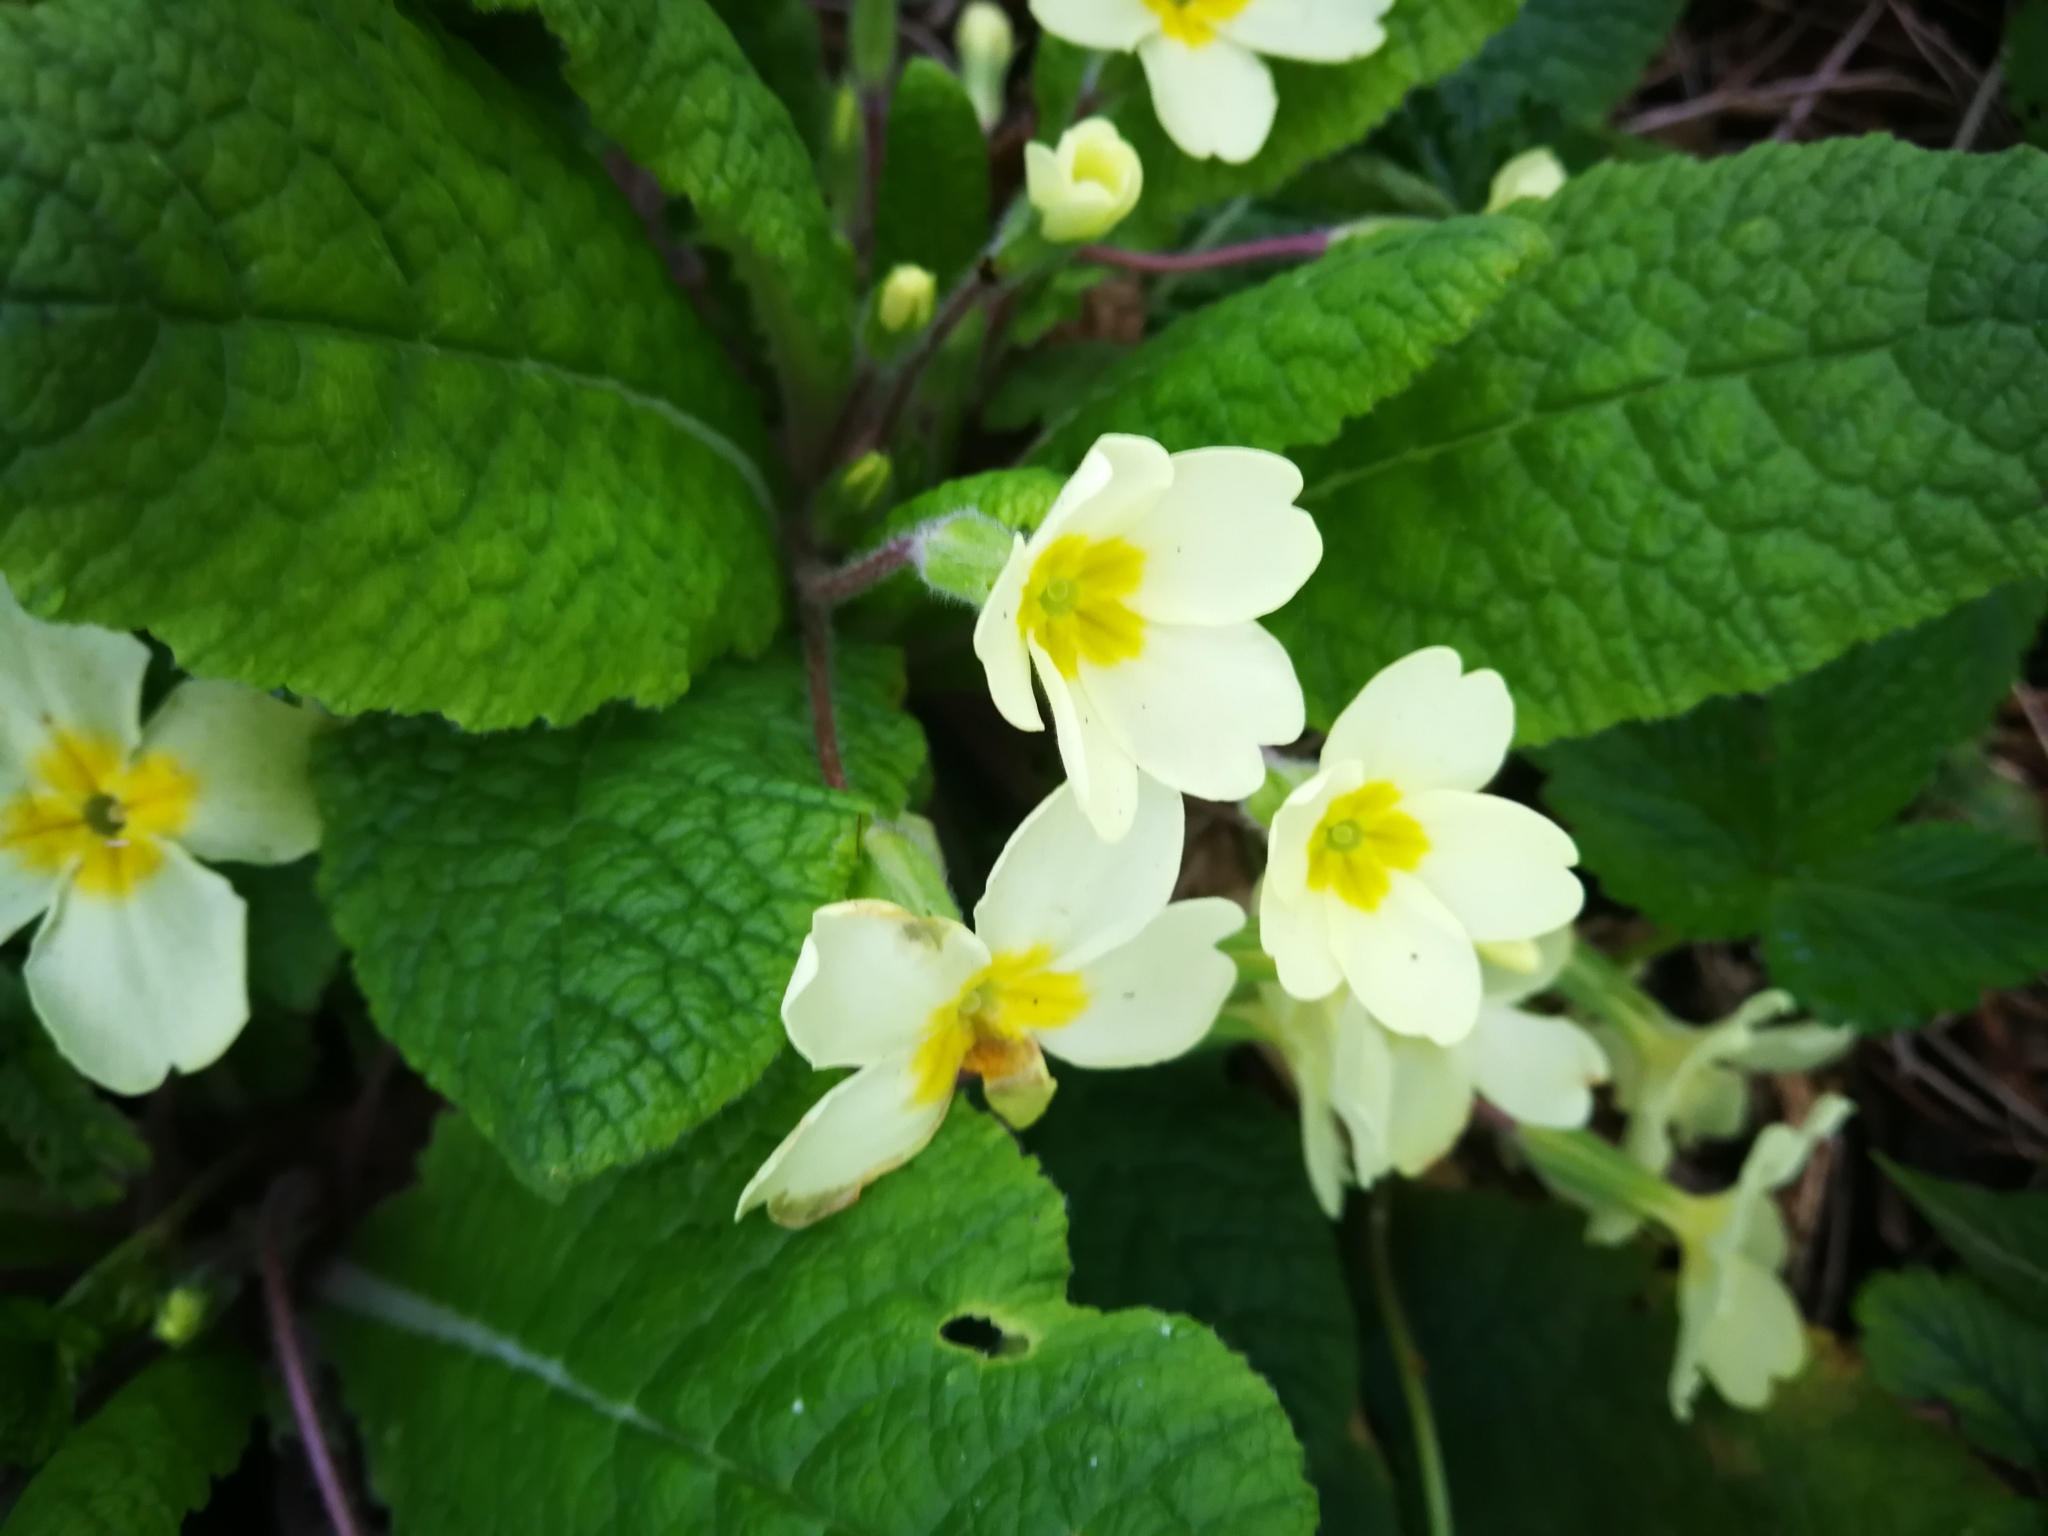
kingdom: Plantae
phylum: Tracheophyta
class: Magnoliopsida
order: Ericales
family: Primulaceae
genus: Primula
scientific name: Primula vulgaris
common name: Primrose
